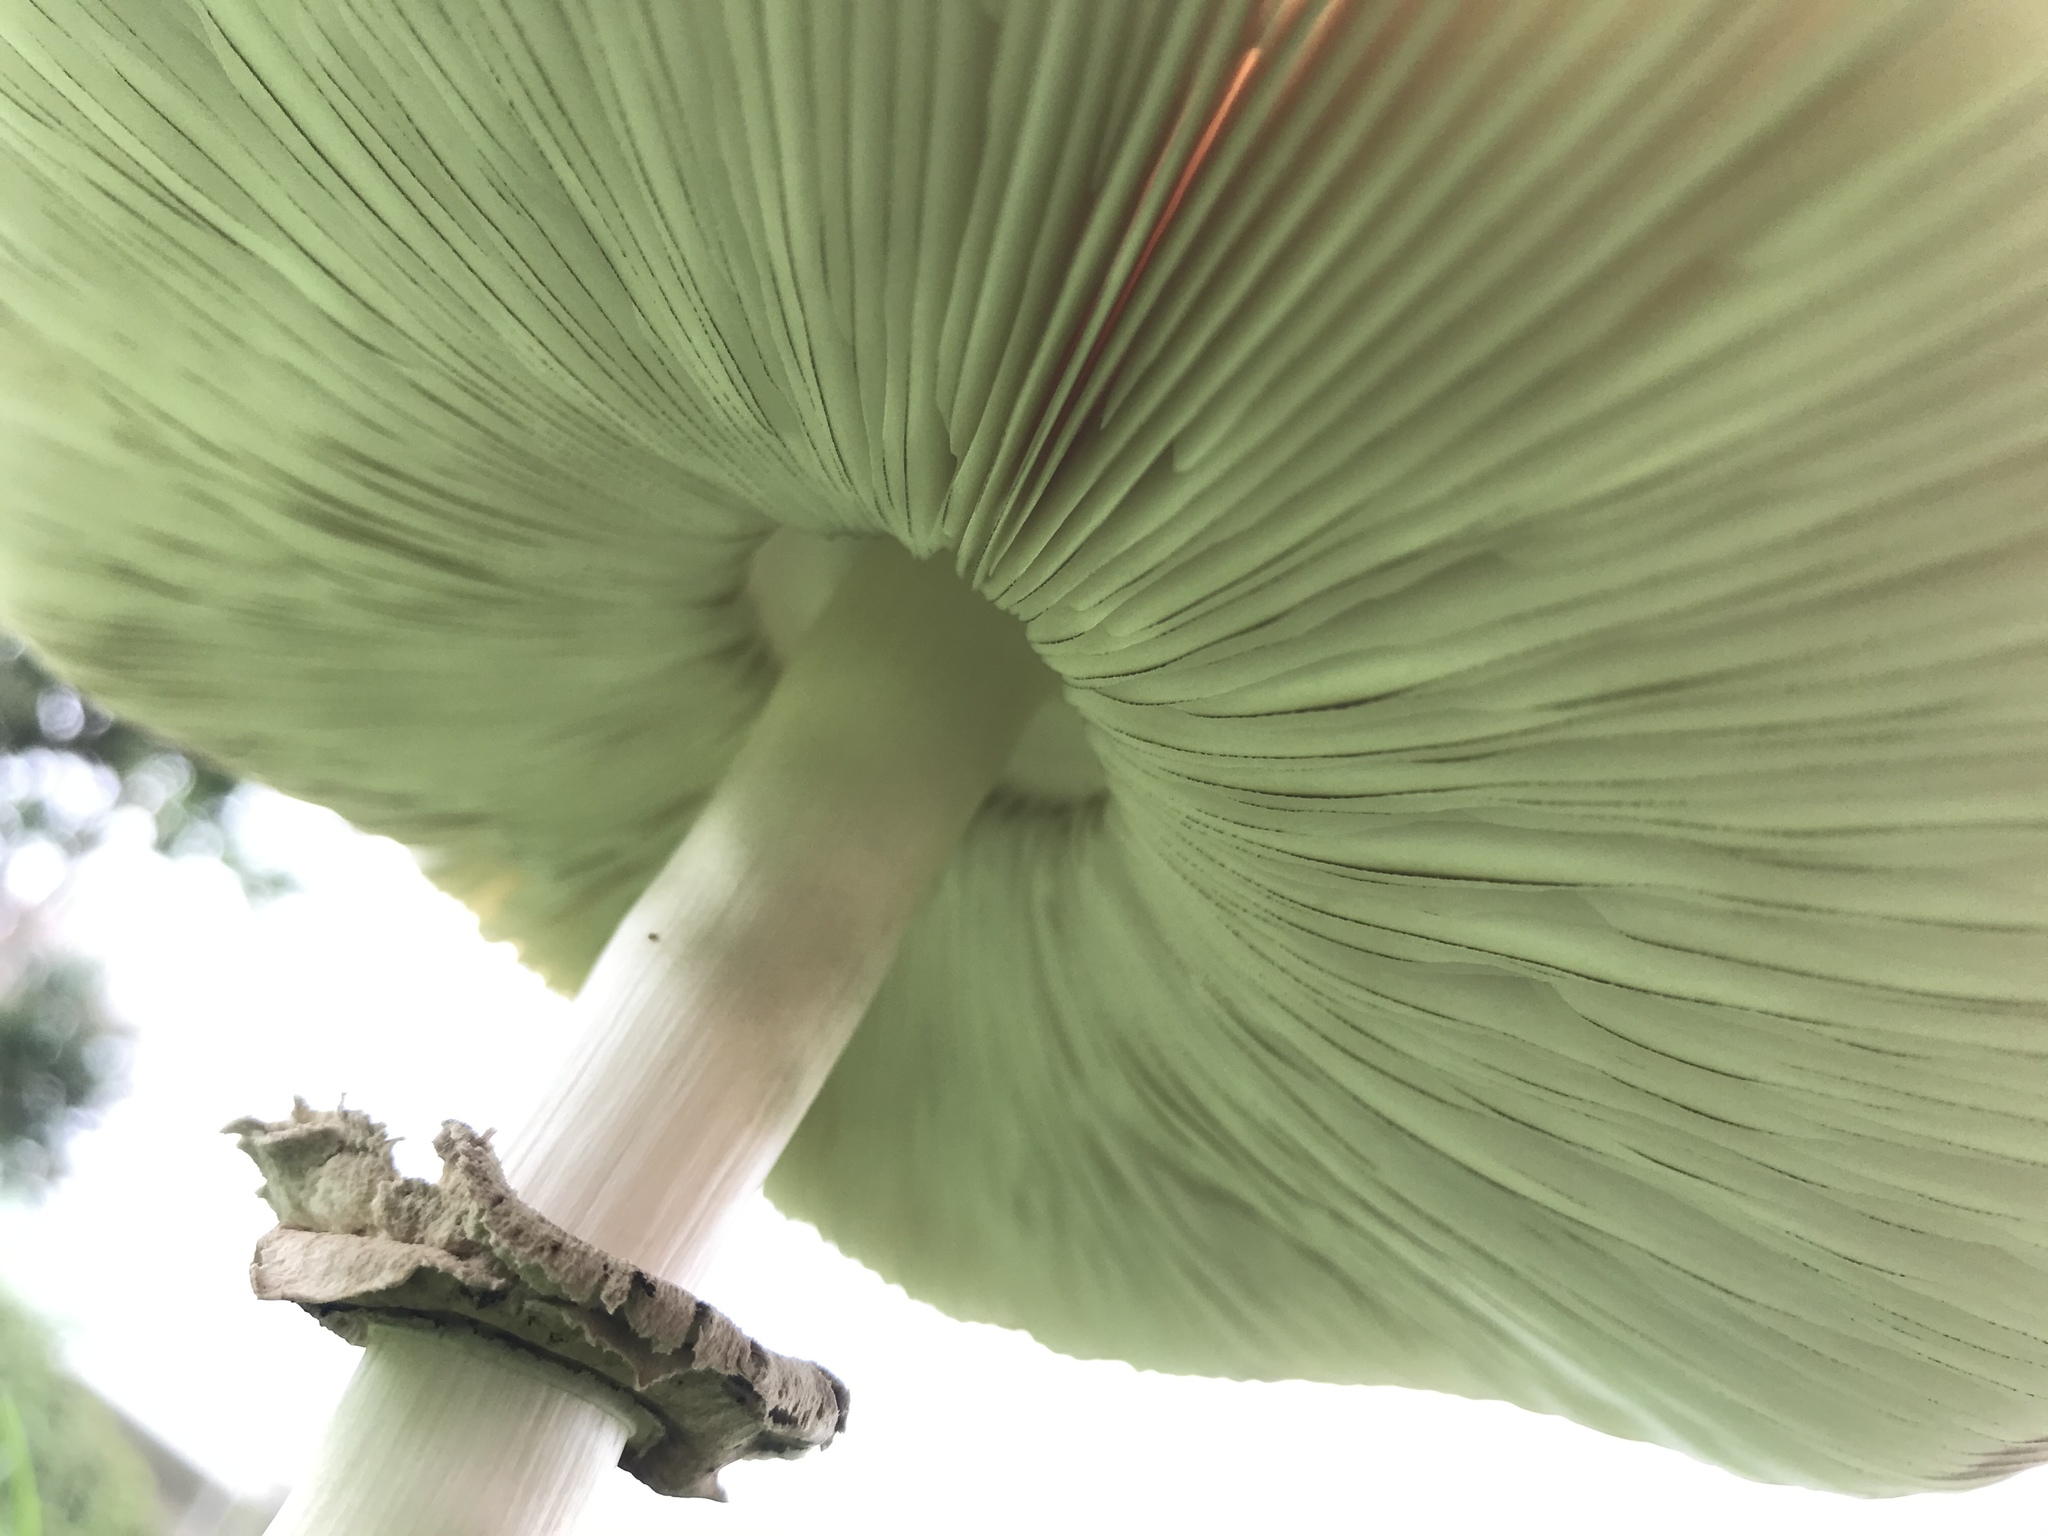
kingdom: Fungi
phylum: Basidiomycota
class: Agaricomycetes
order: Agaricales
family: Agaricaceae
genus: Chlorophyllum
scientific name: Chlorophyllum molybdites
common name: False parasol
